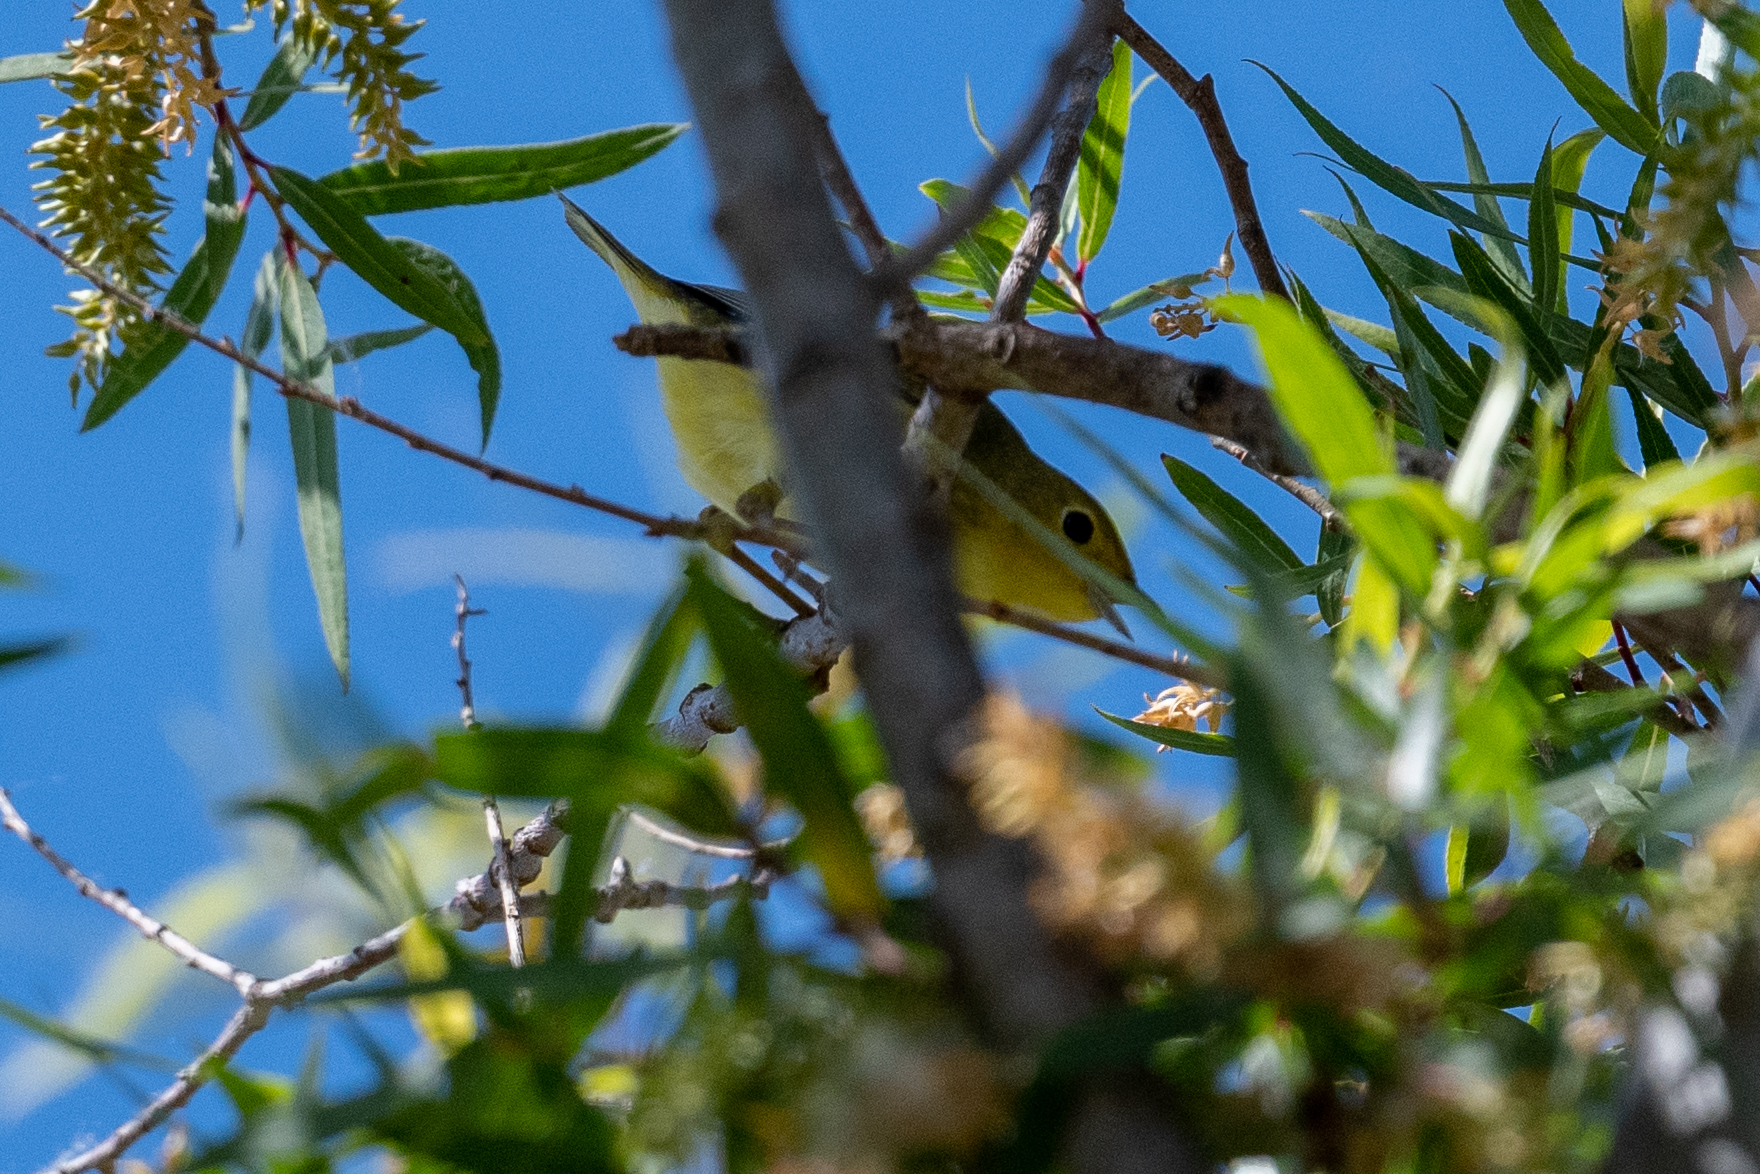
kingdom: Animalia
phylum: Chordata
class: Aves
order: Passeriformes
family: Parulidae
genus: Setophaga
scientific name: Setophaga petechia
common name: Yellow warbler
